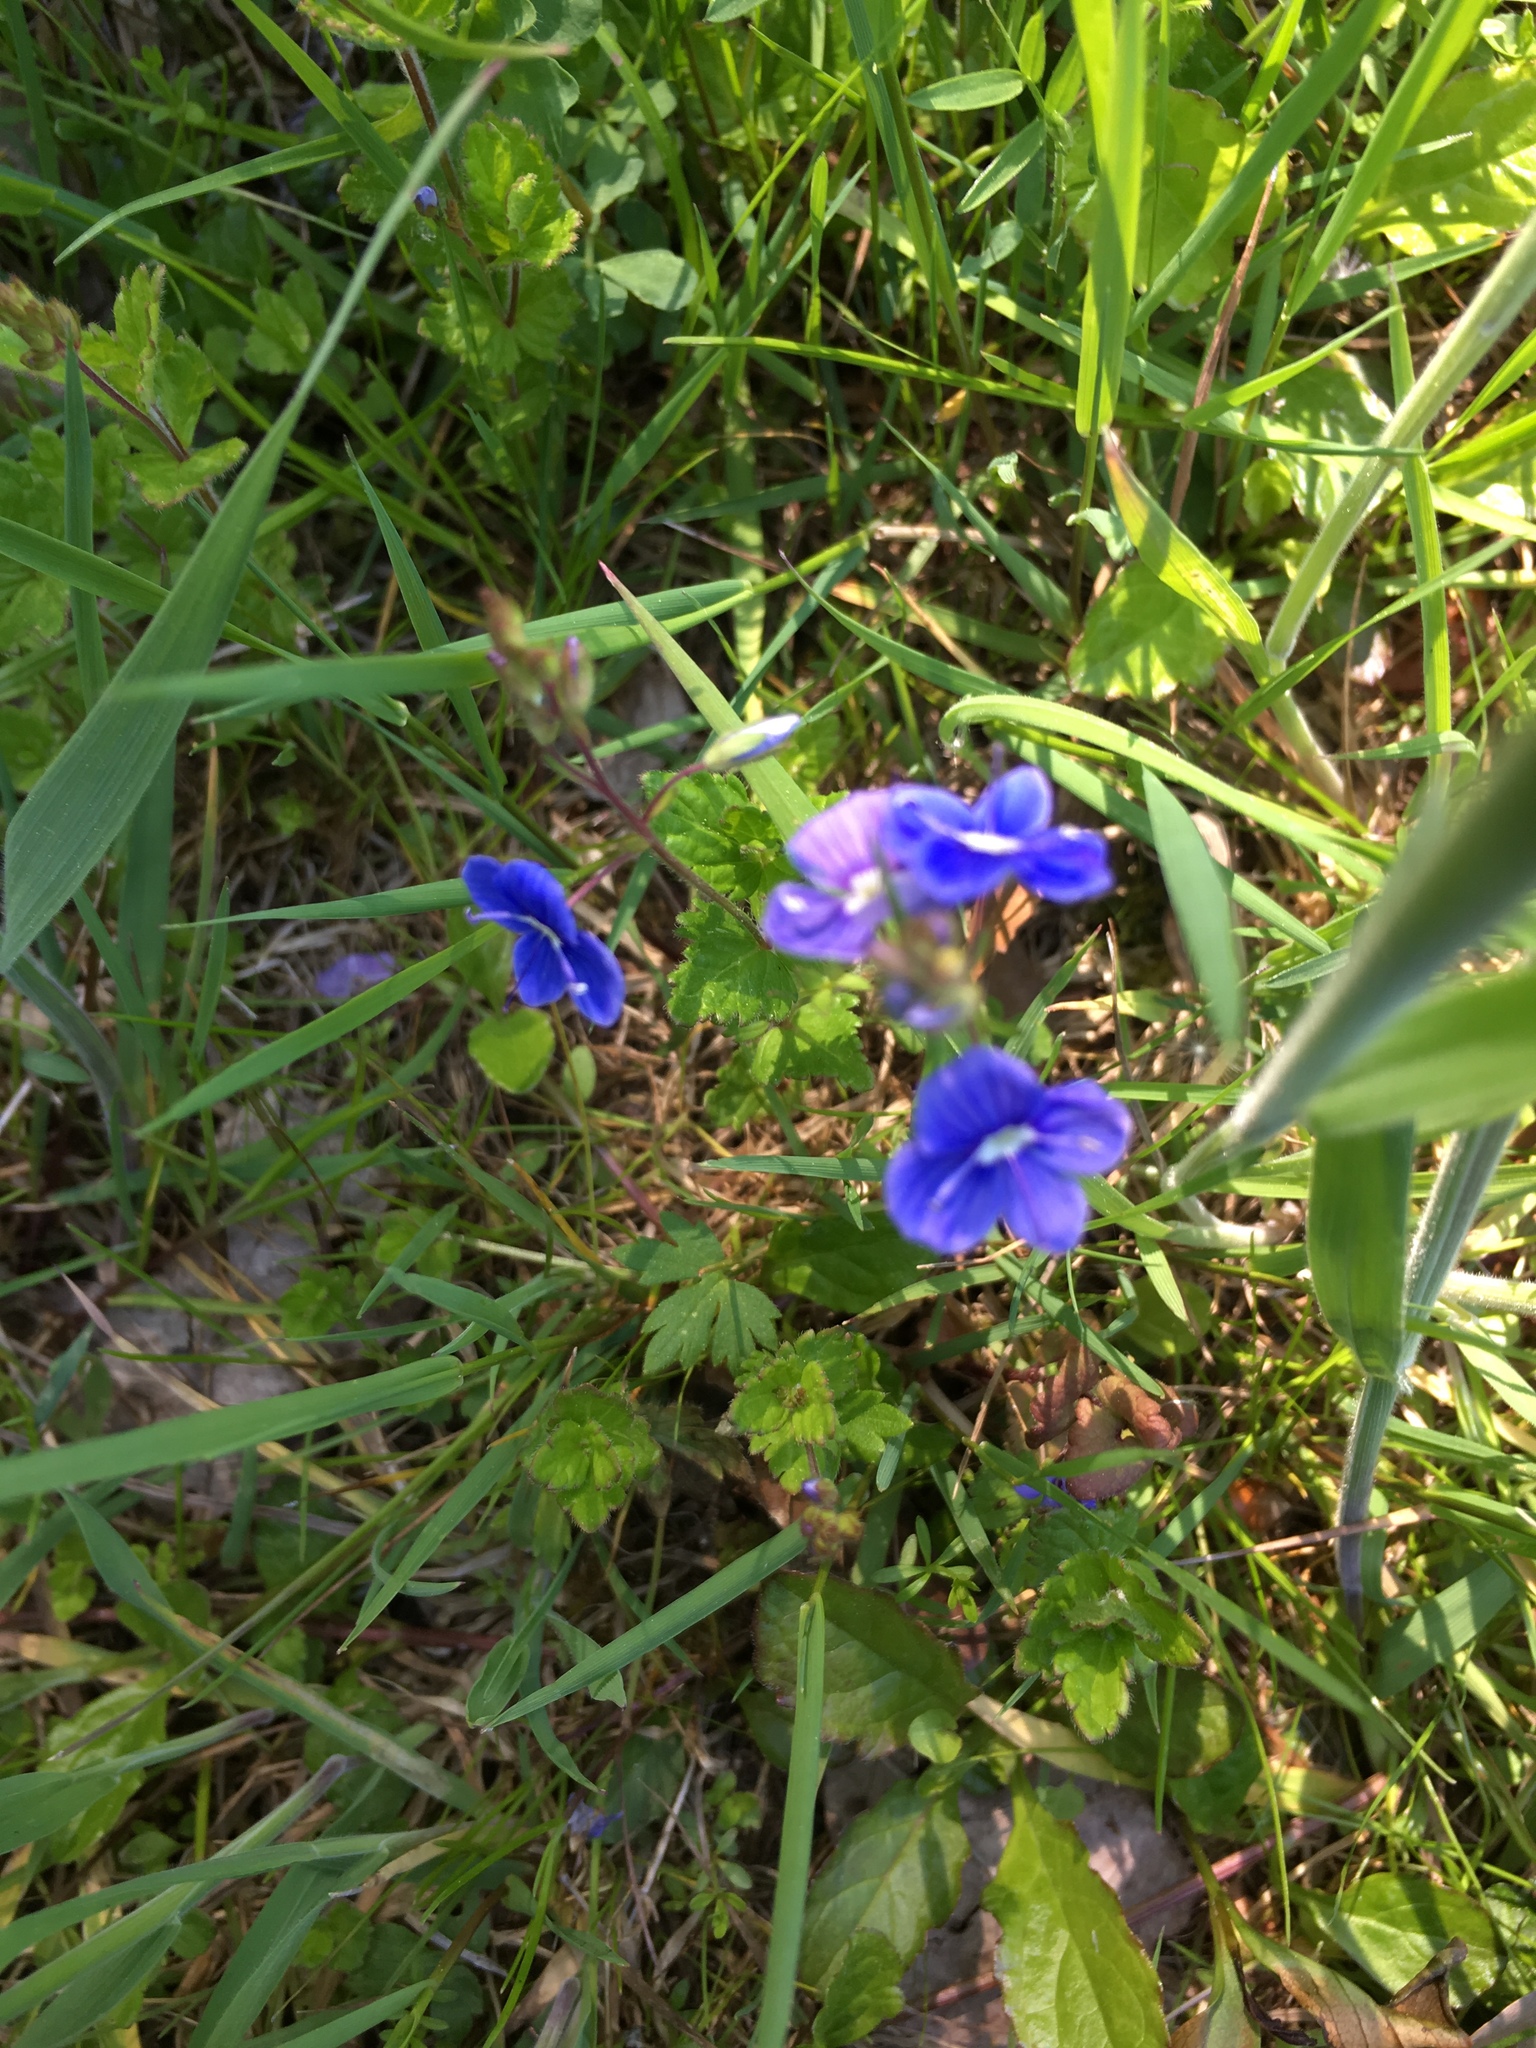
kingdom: Plantae
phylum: Tracheophyta
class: Magnoliopsida
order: Lamiales
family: Plantaginaceae
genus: Veronica
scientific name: Veronica chamaedrys
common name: Germander speedwell
